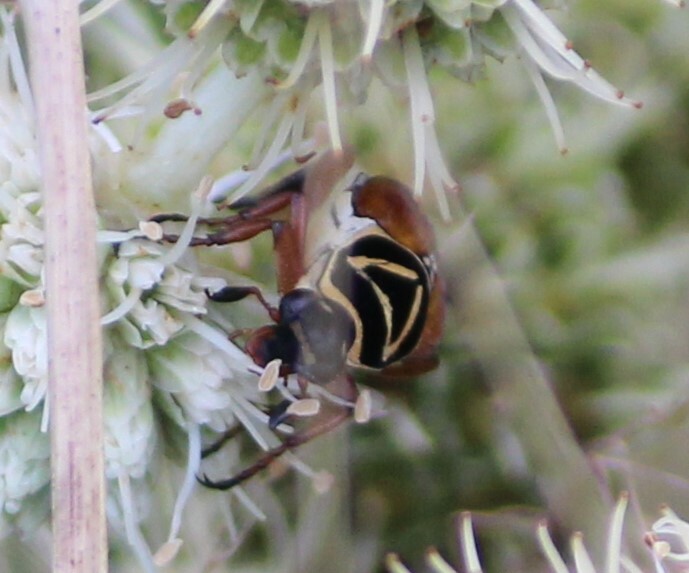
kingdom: Animalia
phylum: Arthropoda
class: Insecta
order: Coleoptera
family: Scarabaeidae
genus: Trigonopeltastes
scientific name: Trigonopeltastes delta
